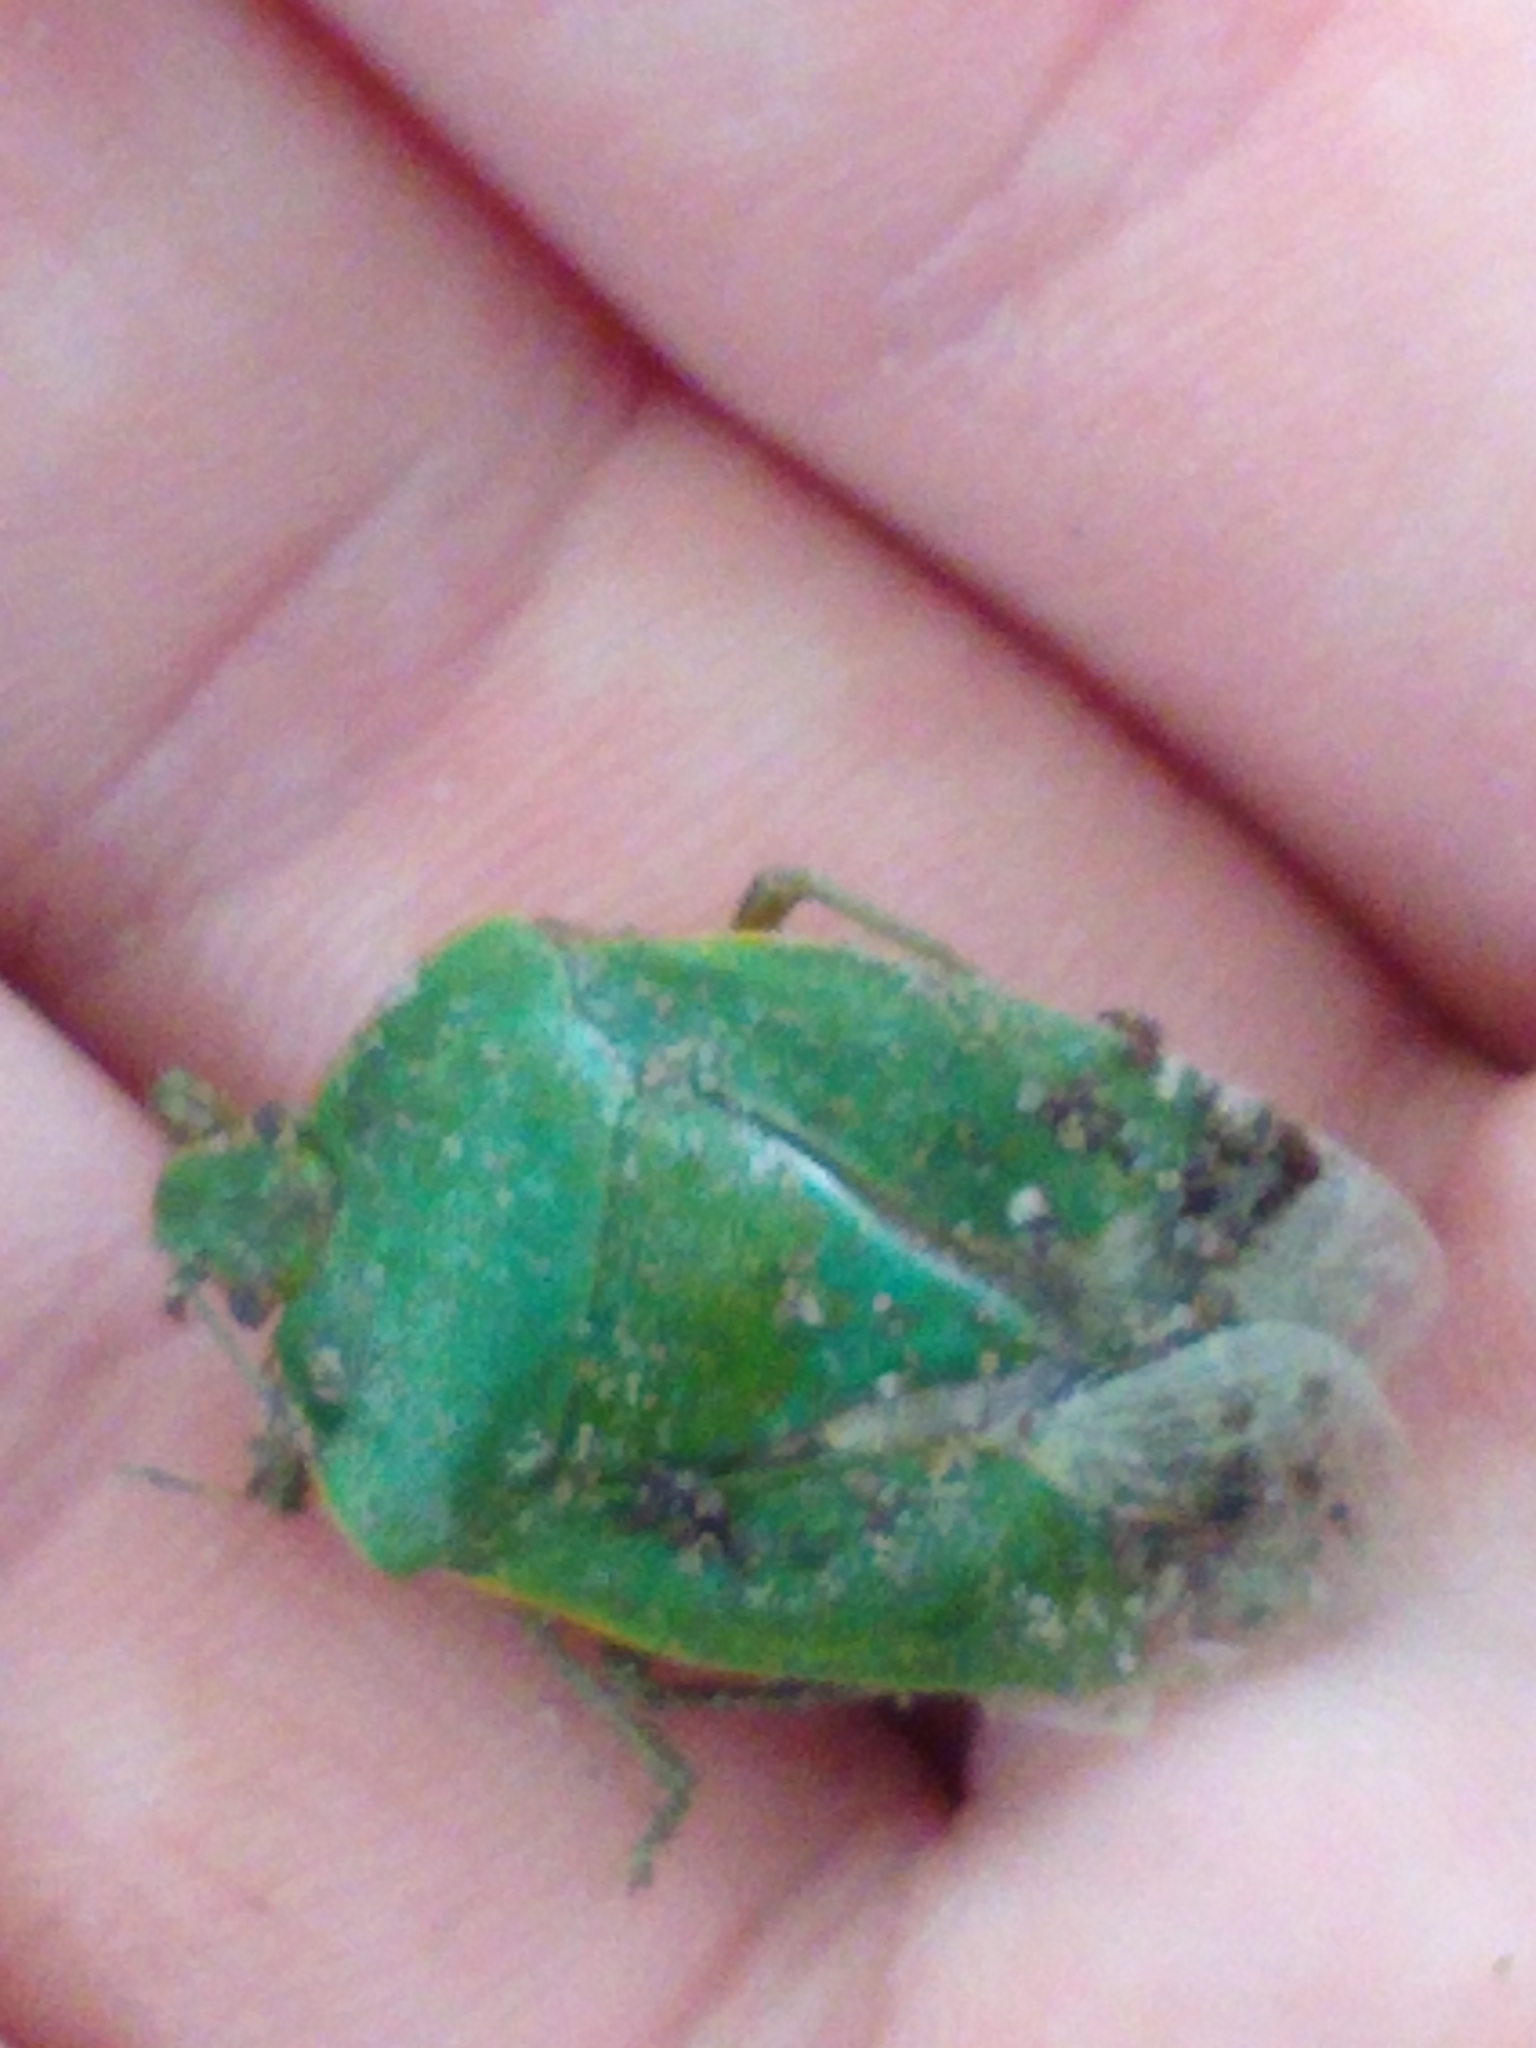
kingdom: Animalia
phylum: Arthropoda
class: Insecta
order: Hemiptera
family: Pentatomidae
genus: Chinavia
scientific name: Chinavia hilaris
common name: Green stink bug
